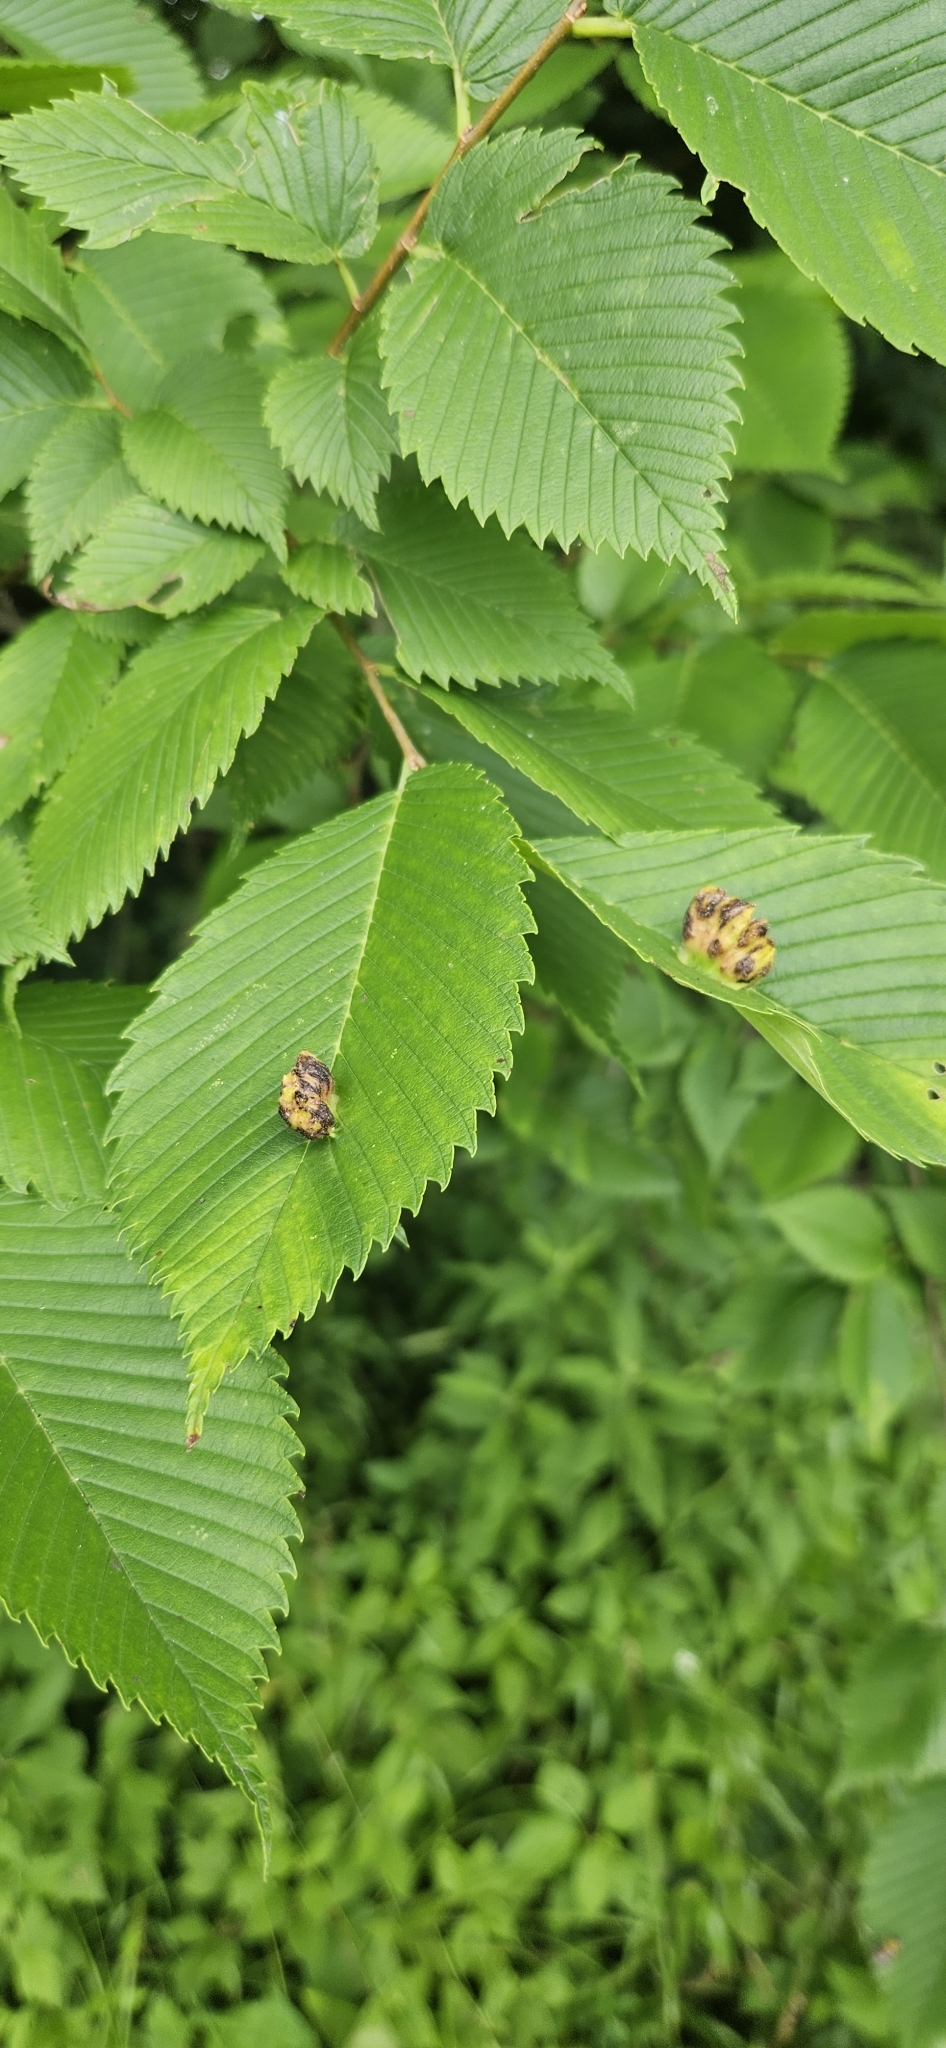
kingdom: Animalia
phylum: Arthropoda
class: Insecta
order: Hemiptera
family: Aphididae
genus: Colopha
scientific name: Colopha ulmicola
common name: Elm cockscombgall aphid
